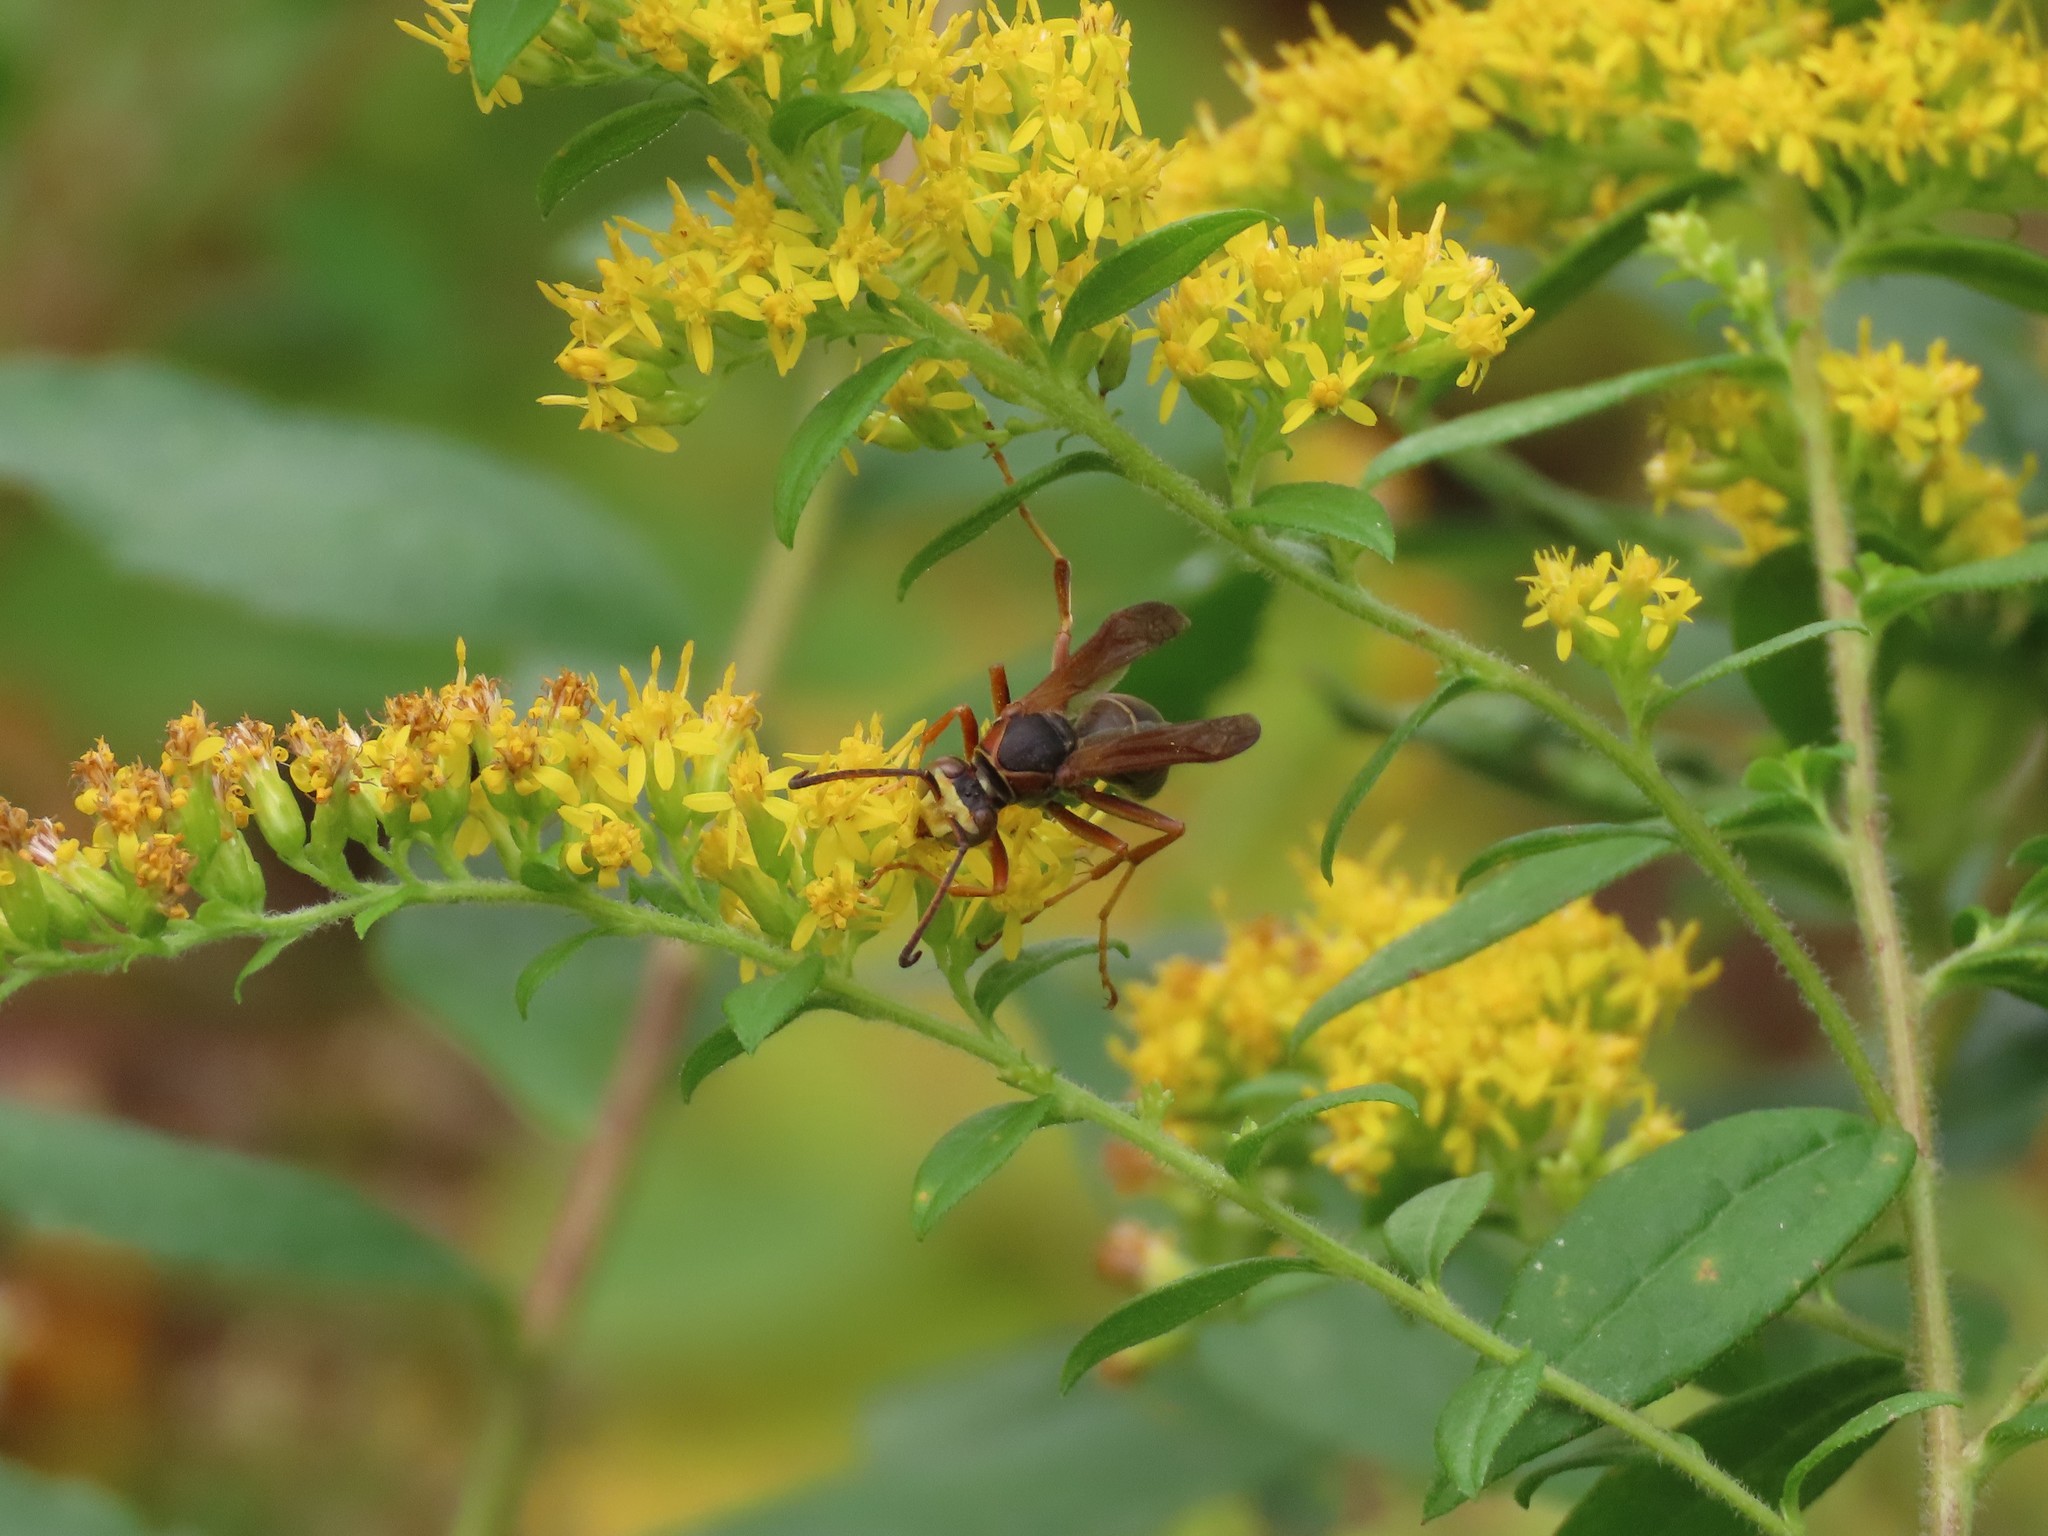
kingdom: Animalia
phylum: Arthropoda
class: Insecta
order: Hymenoptera
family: Eumenidae
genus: Polistes
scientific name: Polistes fuscatus
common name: Dark paper wasp
